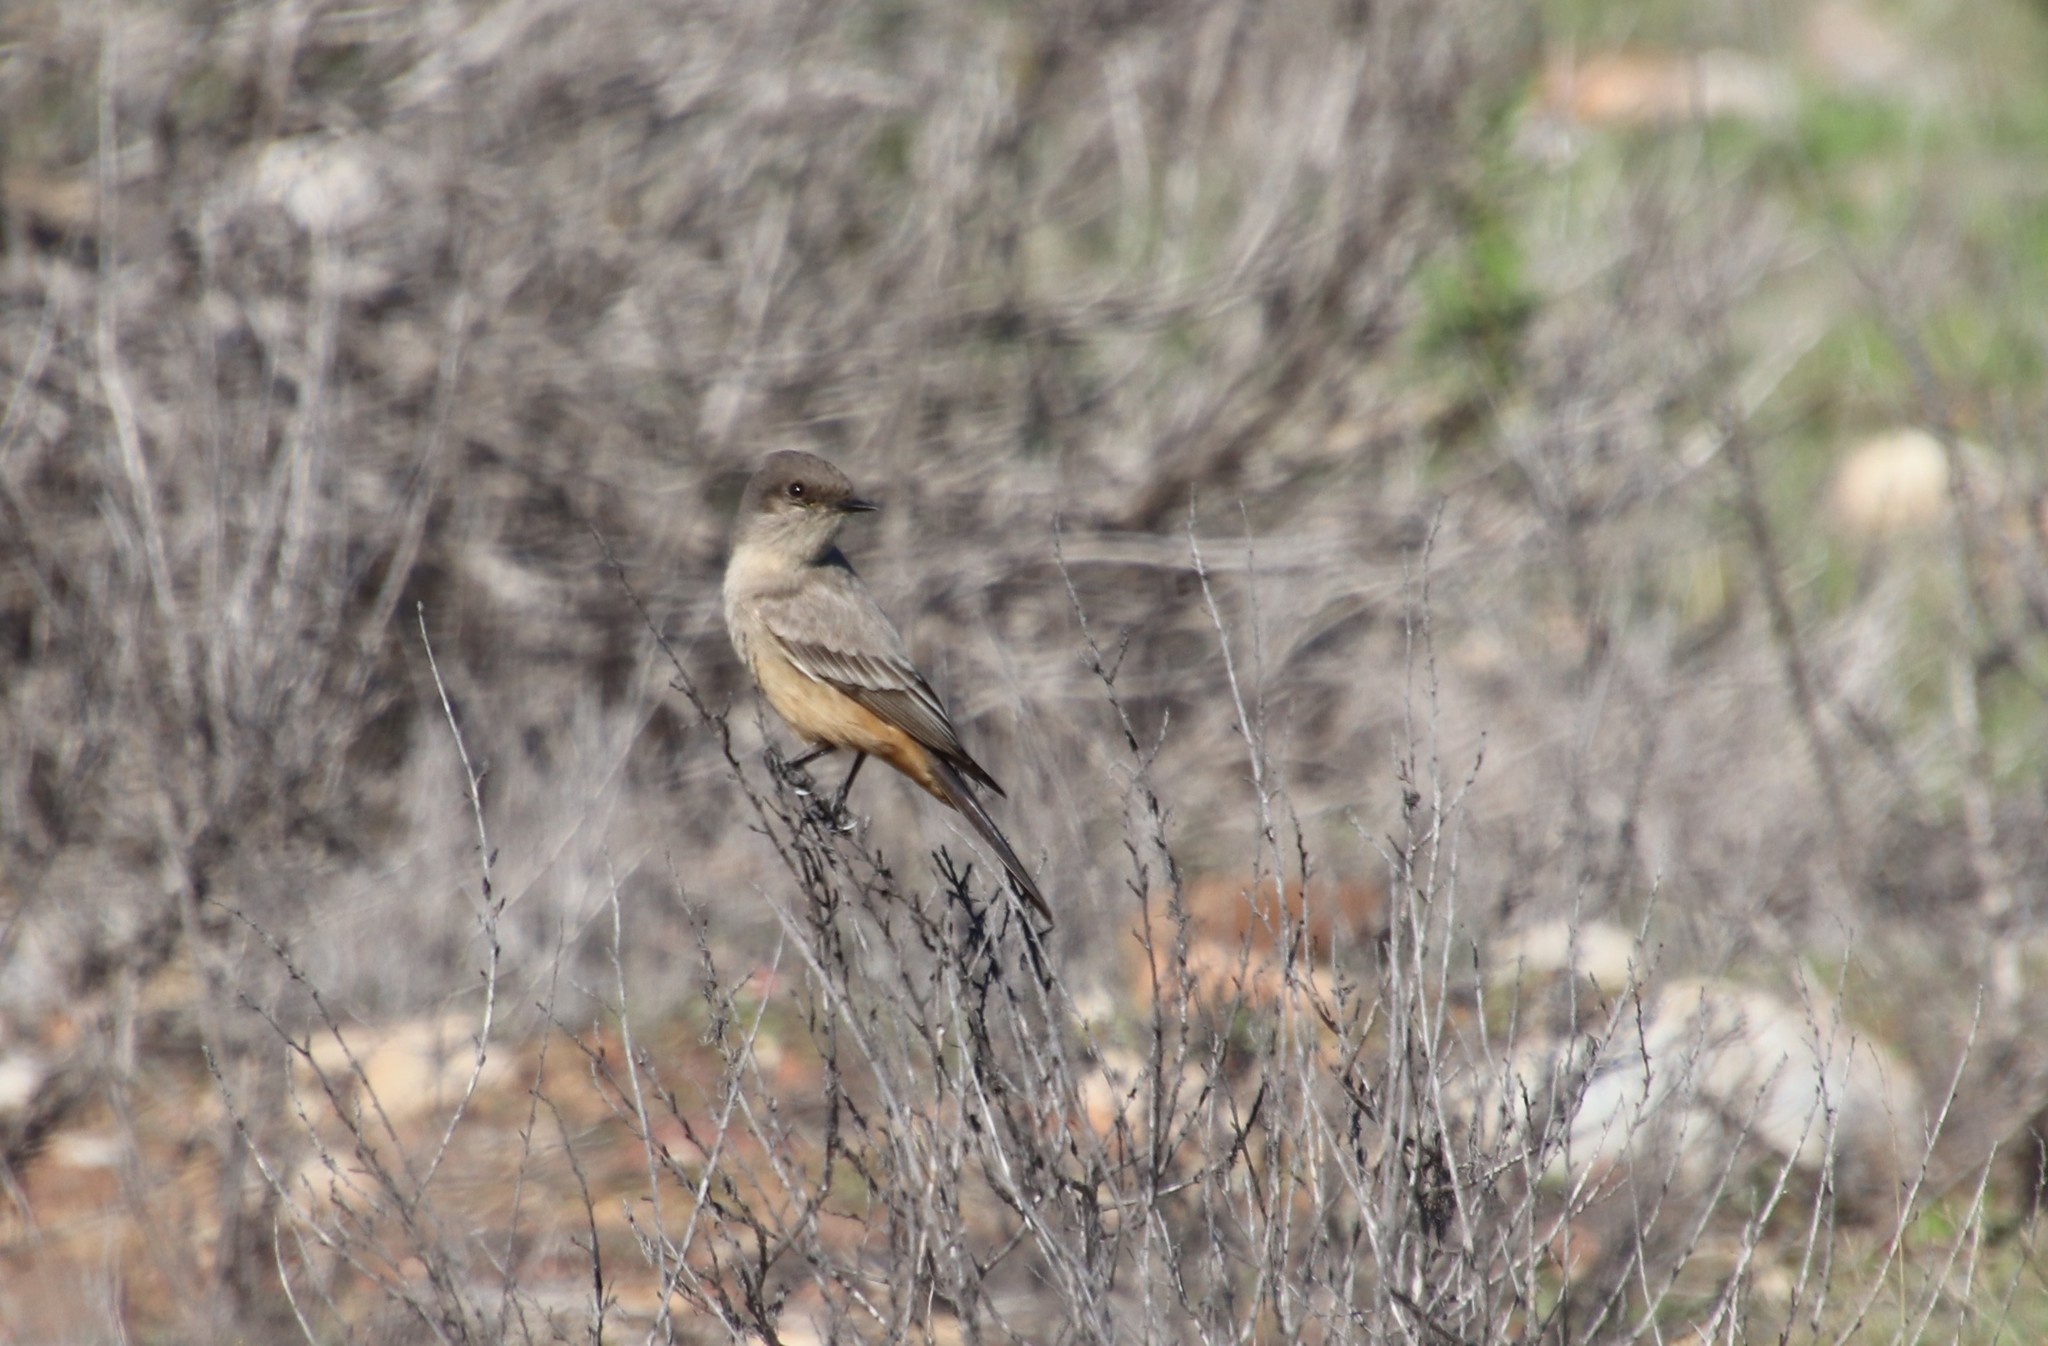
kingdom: Animalia
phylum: Chordata
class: Aves
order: Passeriformes
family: Tyrannidae
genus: Sayornis
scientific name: Sayornis saya
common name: Say's phoebe
